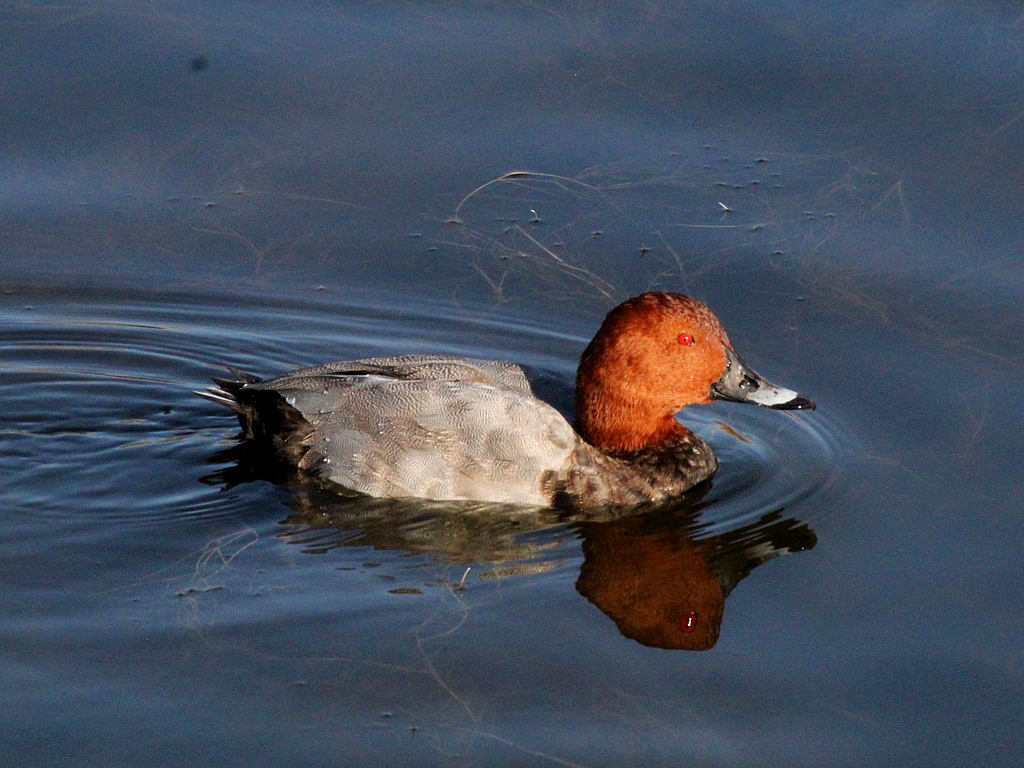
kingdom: Animalia
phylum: Chordata
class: Aves
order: Anseriformes
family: Anatidae
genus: Aythya
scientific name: Aythya ferina
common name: Common pochard
